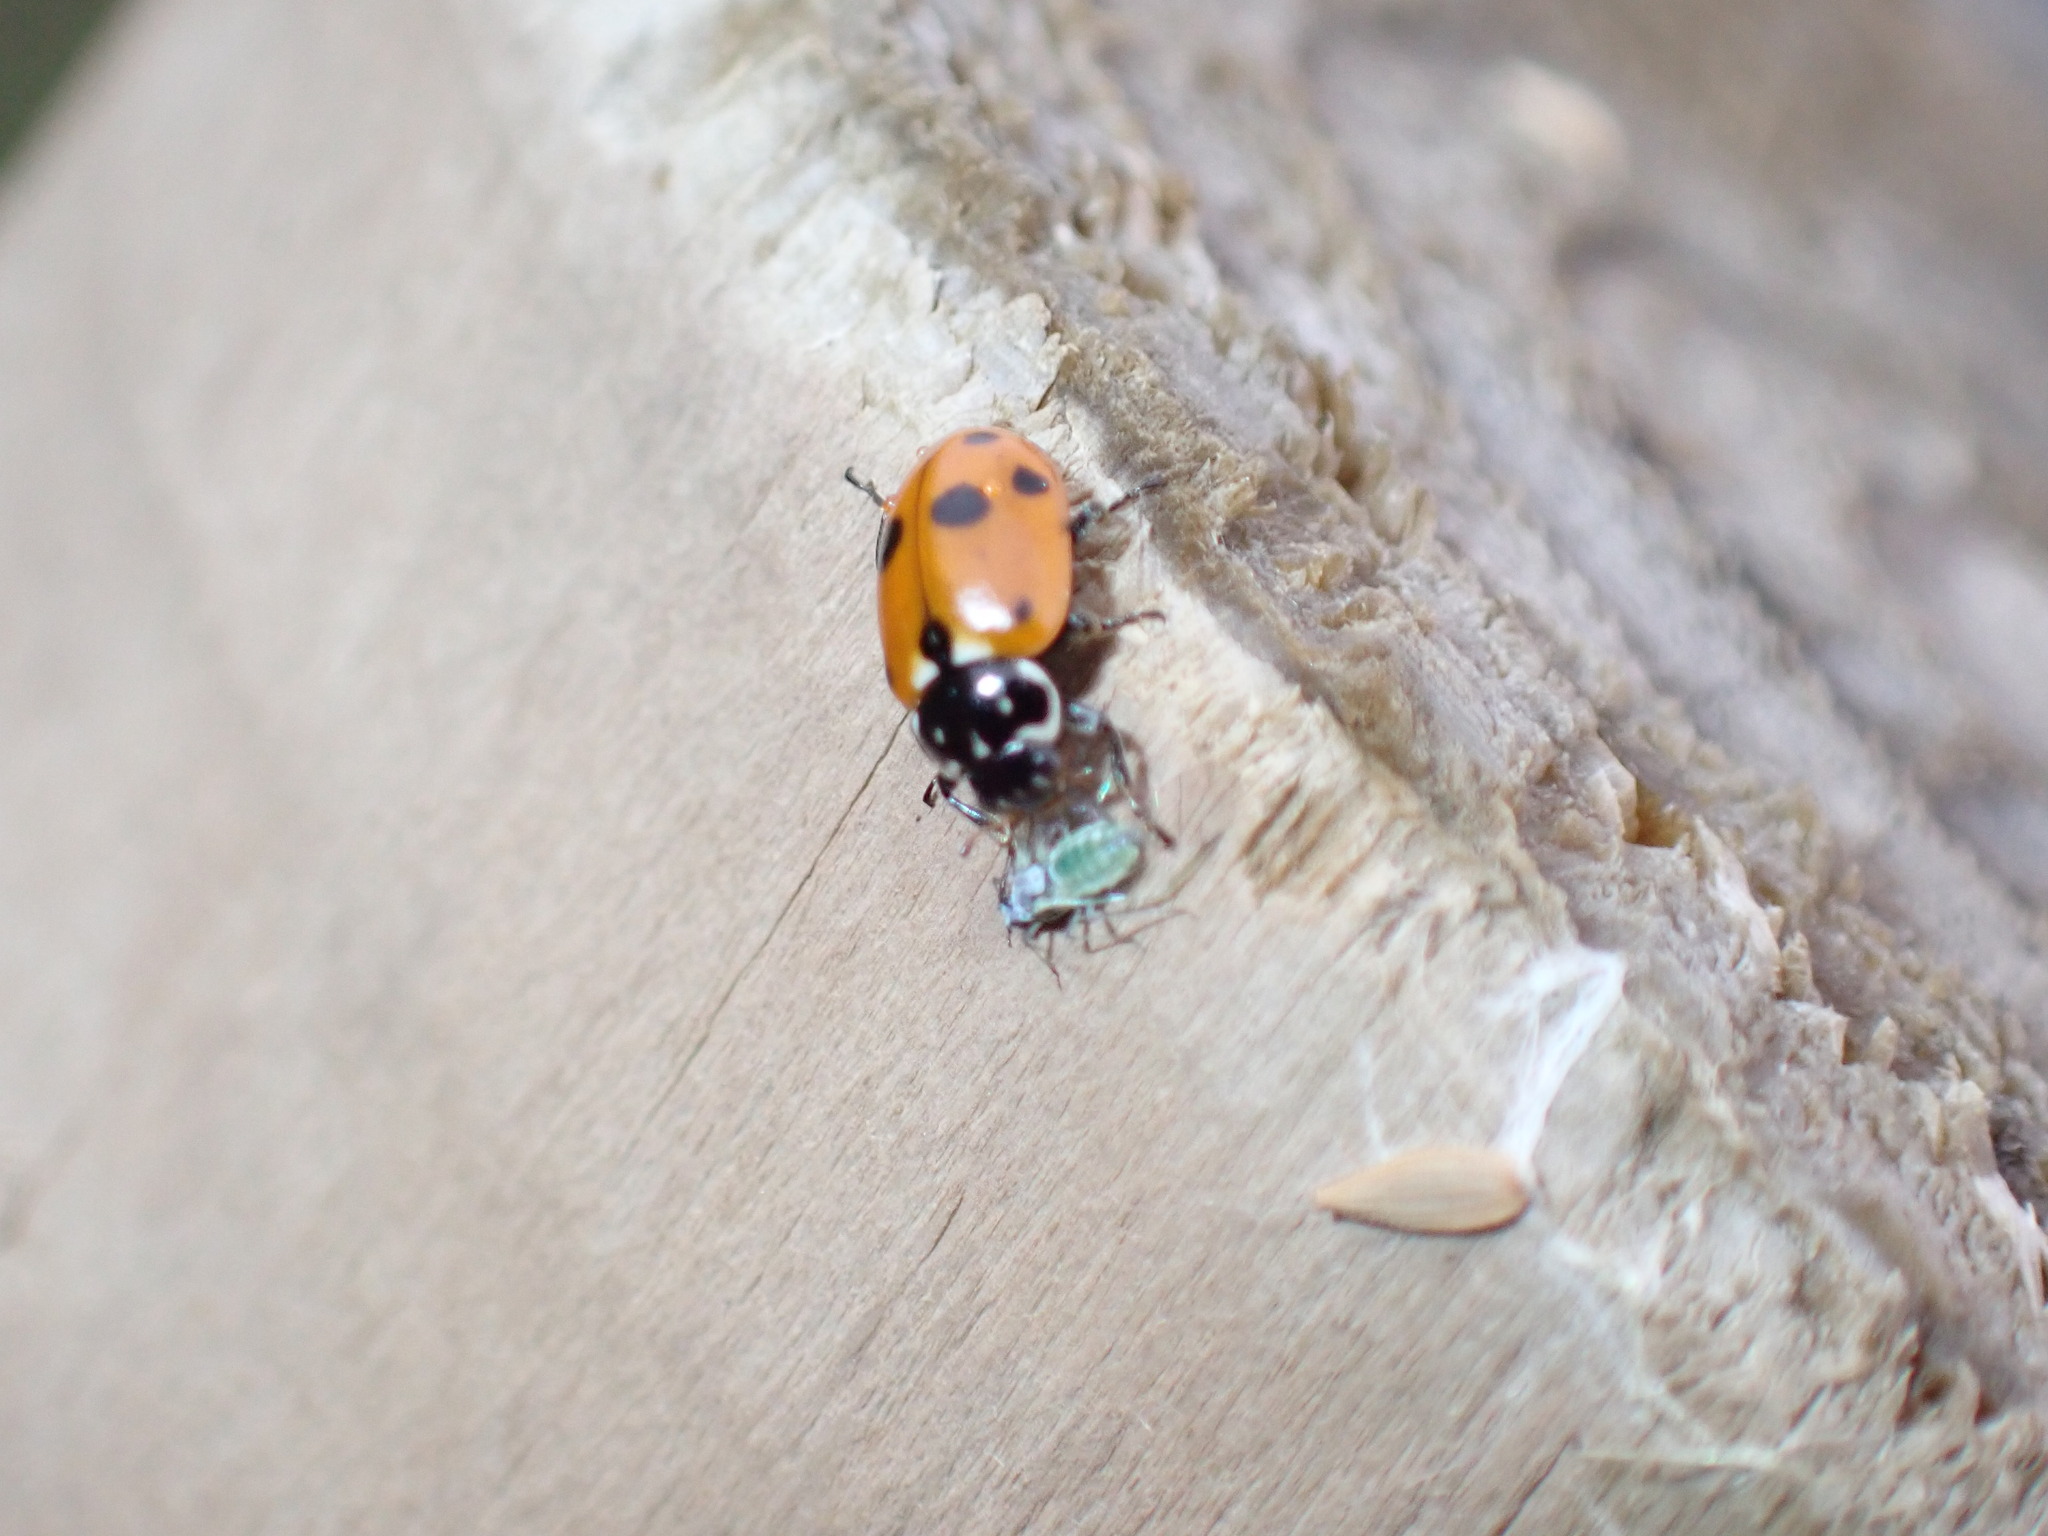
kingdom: Animalia
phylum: Arthropoda
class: Insecta
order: Coleoptera
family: Coccinellidae
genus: Hippodamia
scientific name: Hippodamia variegata
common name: Ladybird beetle
